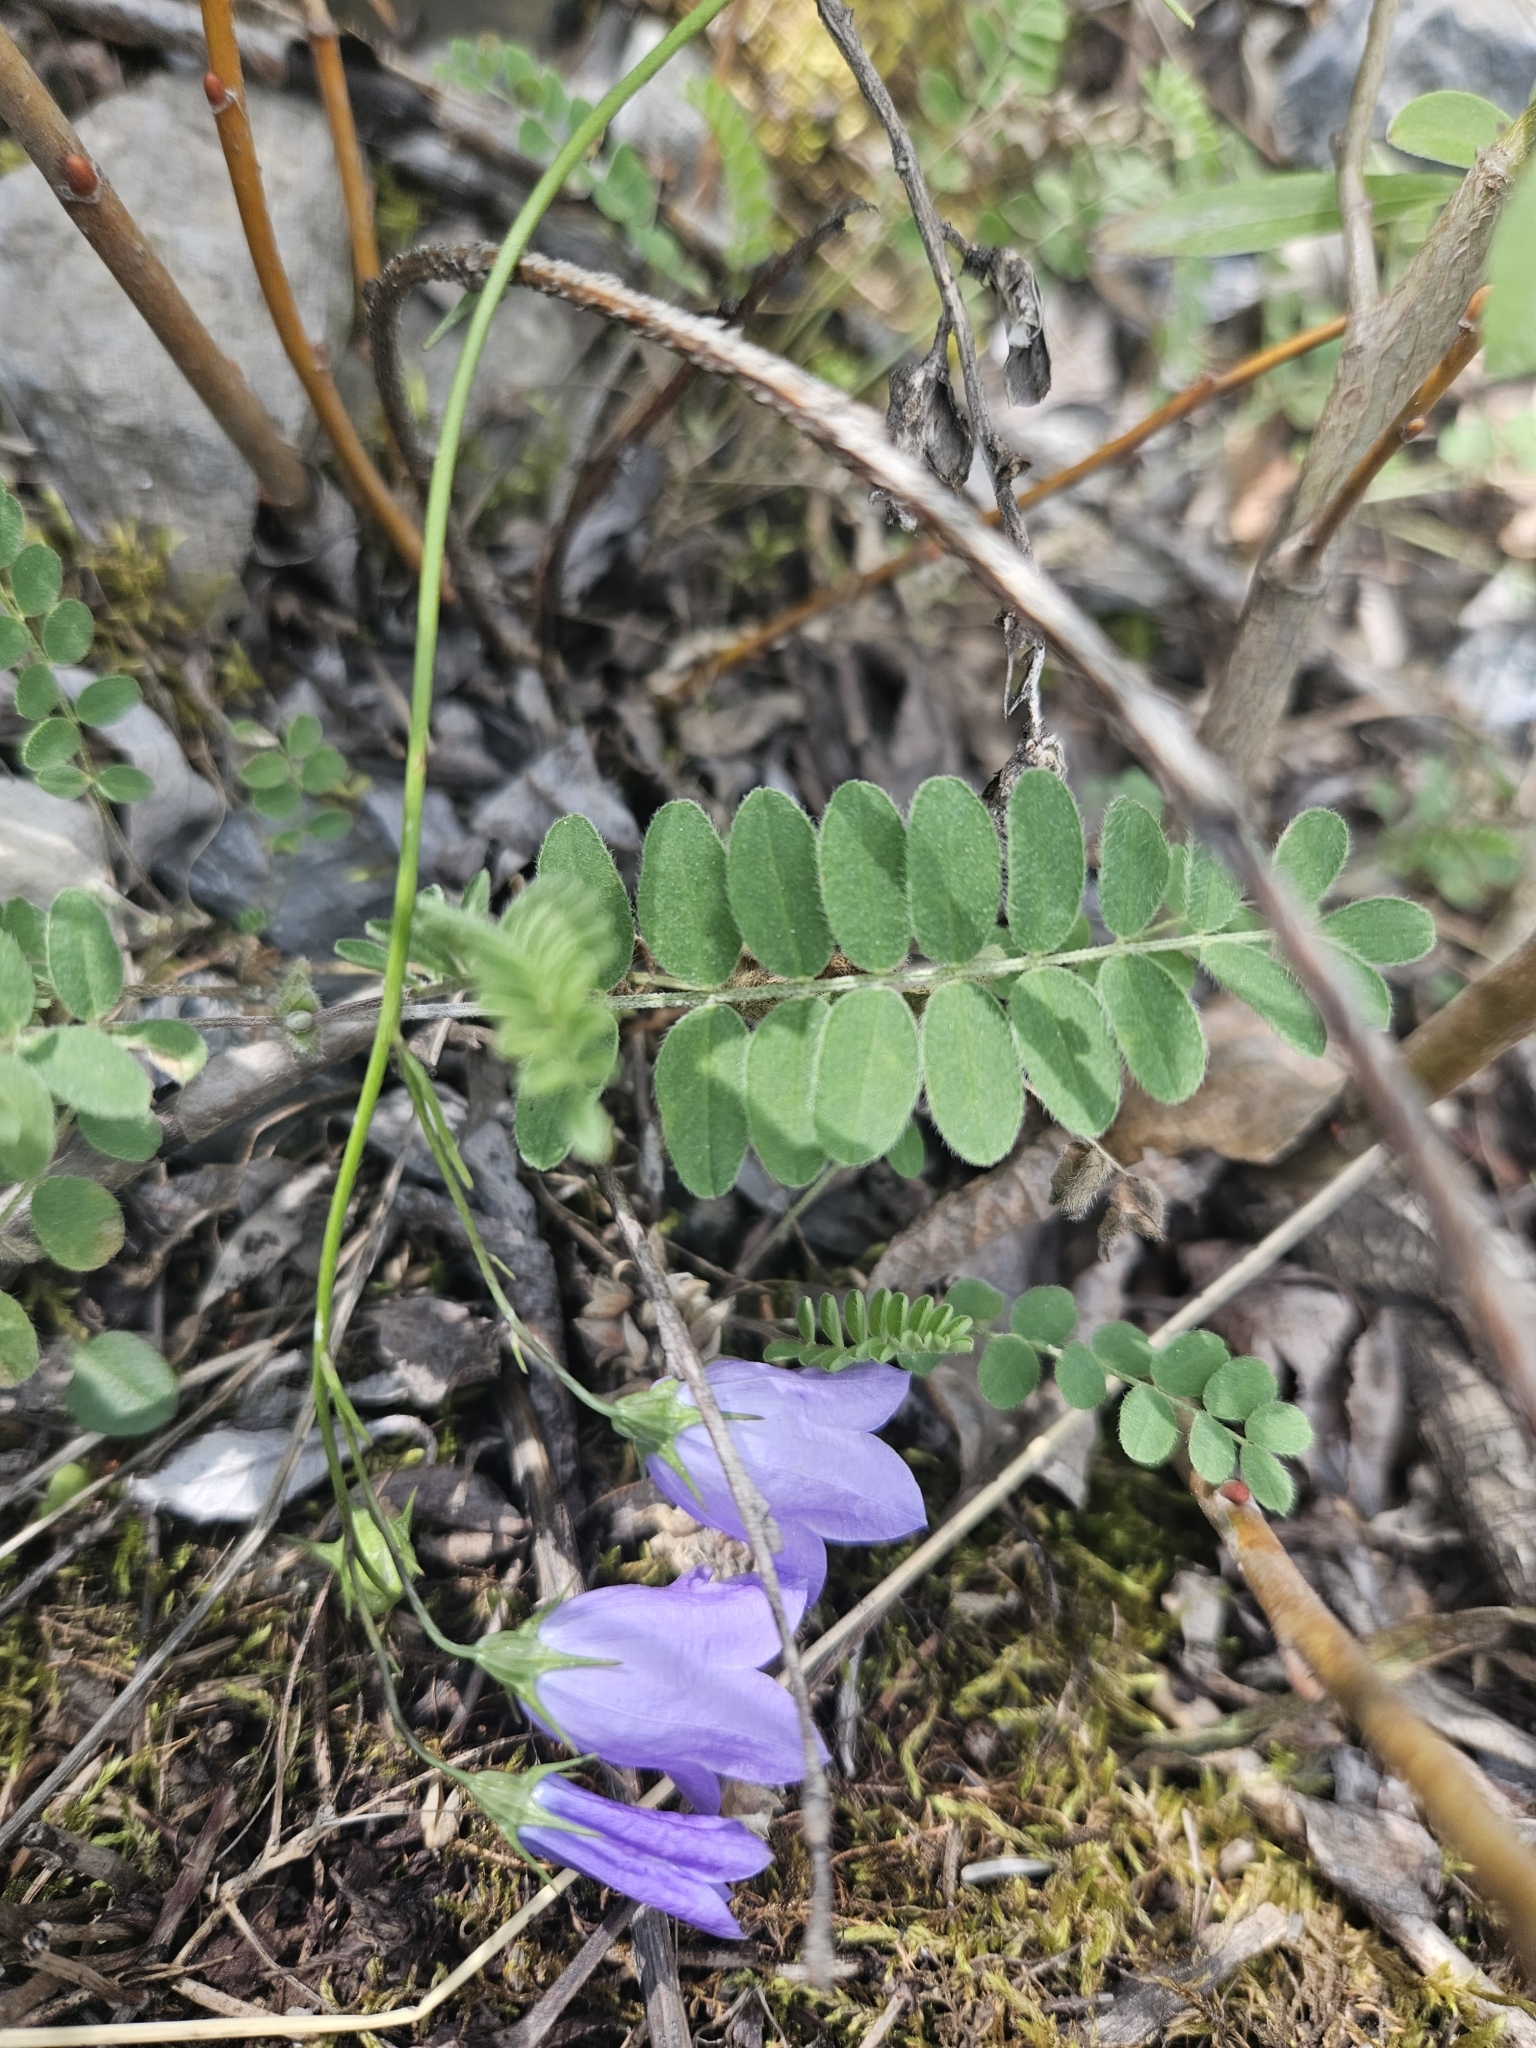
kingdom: Plantae
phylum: Tracheophyta
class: Magnoliopsida
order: Asterales
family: Campanulaceae
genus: Campanula
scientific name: Campanula alaskana
